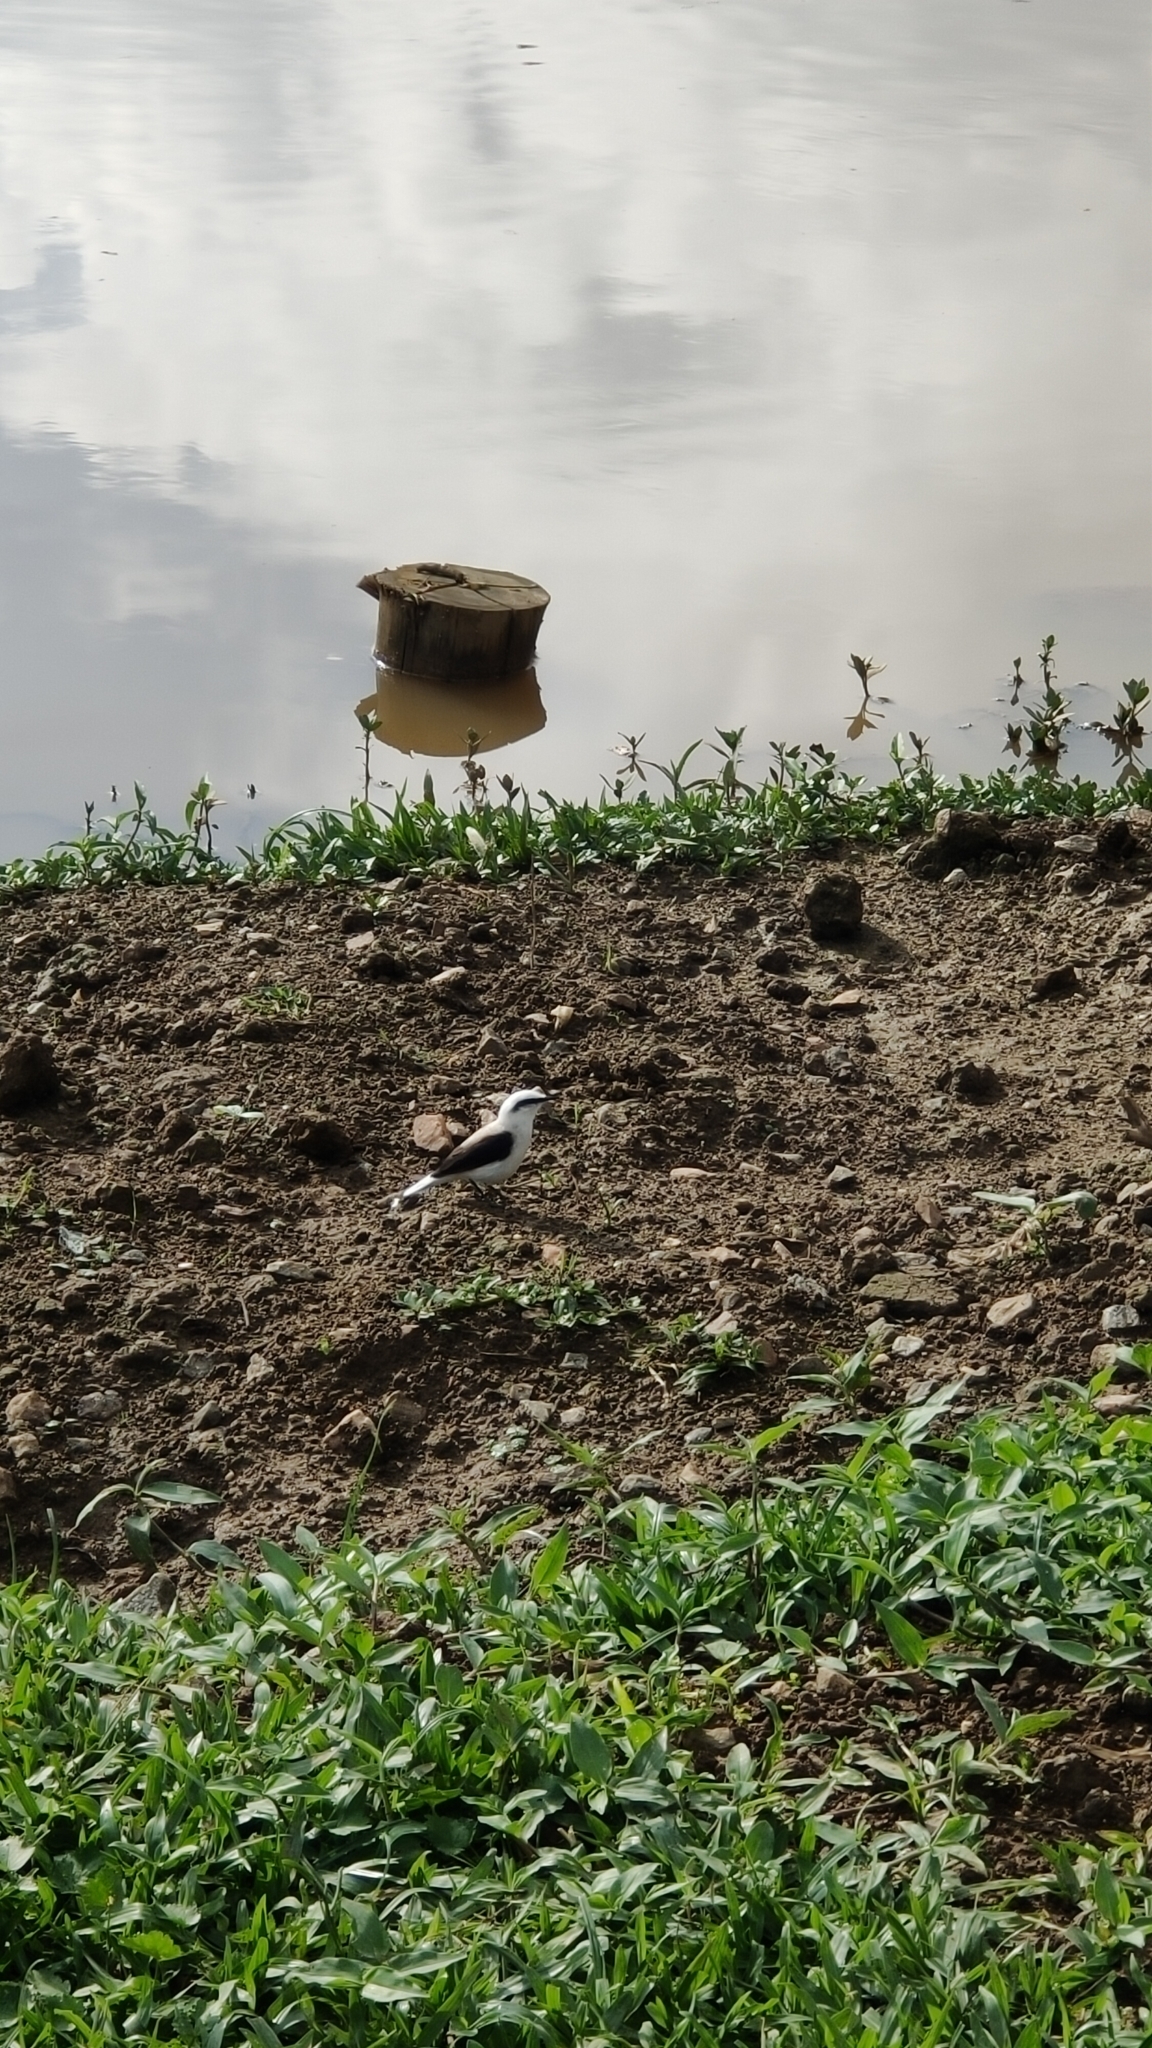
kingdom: Animalia
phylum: Chordata
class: Aves
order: Passeriformes
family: Tyrannidae
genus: Fluvicola
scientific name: Fluvicola nengeta
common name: Masked water tyrant
